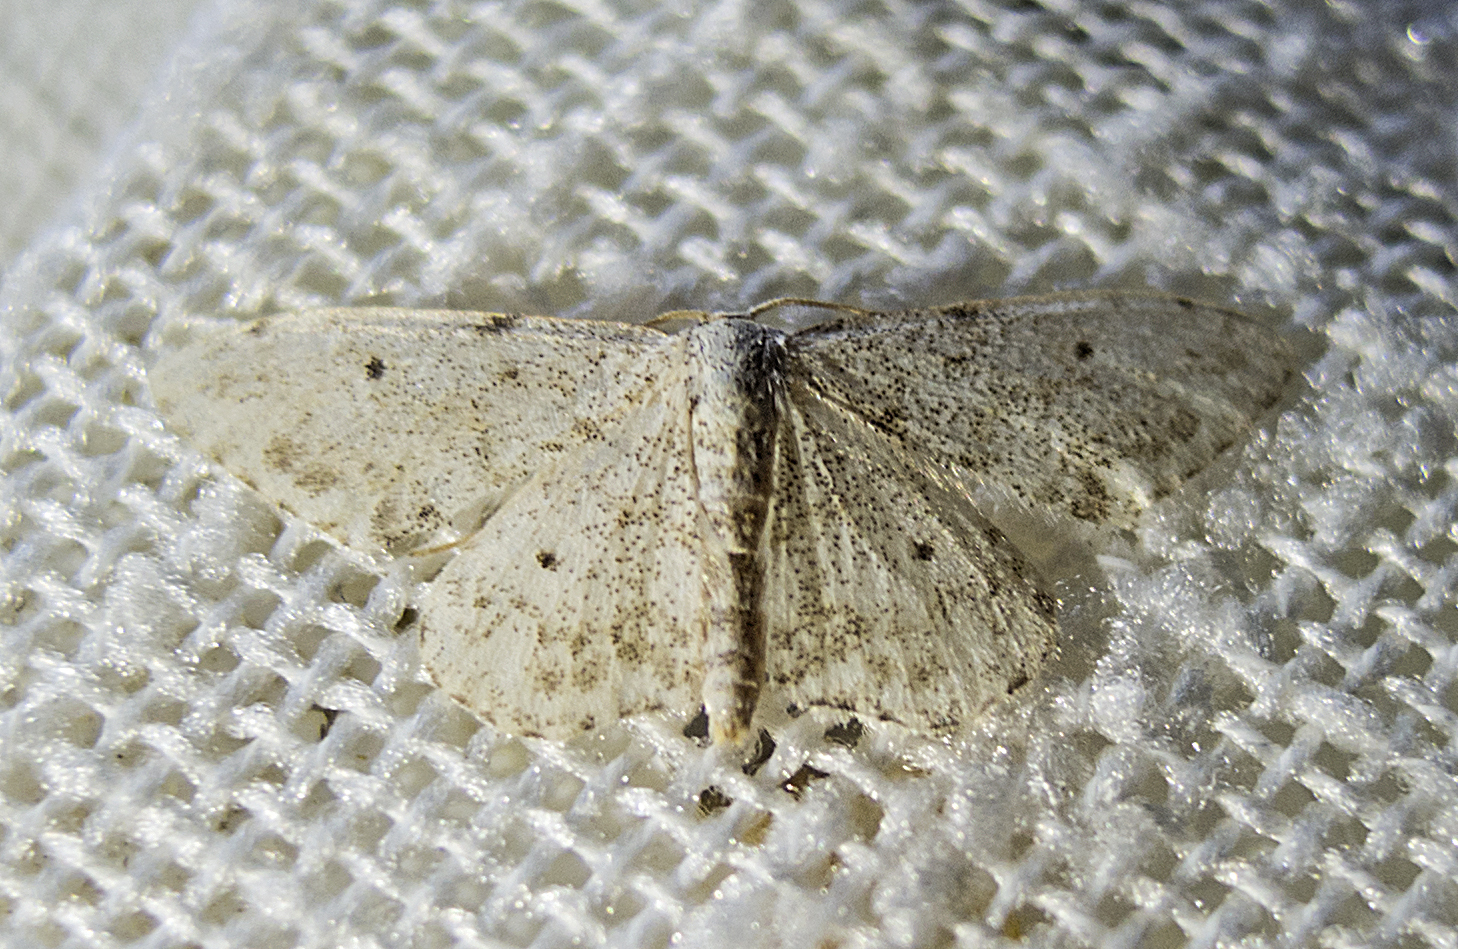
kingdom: Animalia
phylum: Arthropoda
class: Insecta
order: Lepidoptera
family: Geometridae
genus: Idaea
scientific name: Idaea camparia
